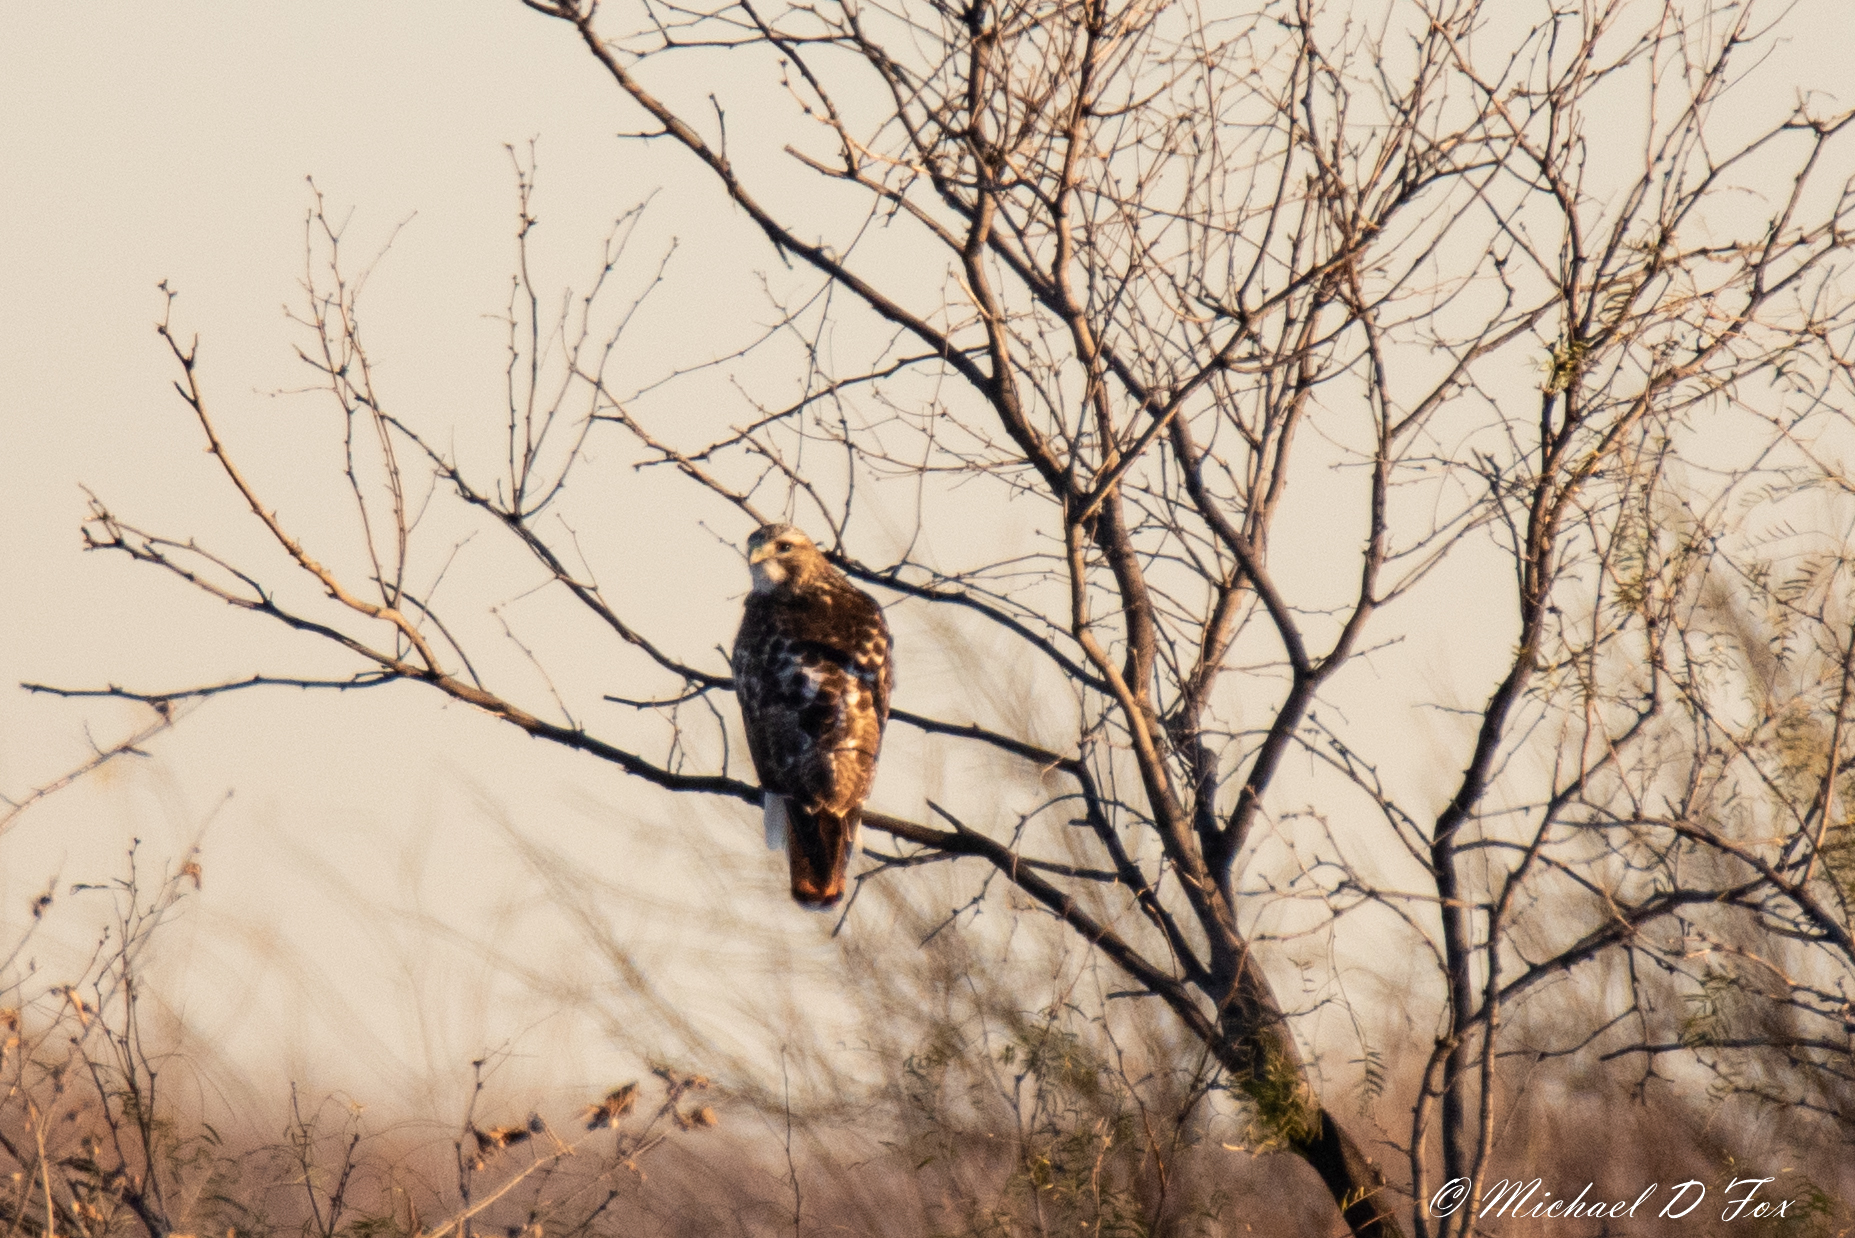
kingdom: Animalia
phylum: Chordata
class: Aves
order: Accipitriformes
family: Accipitridae
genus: Buteo
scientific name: Buteo jamaicensis
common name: Red-tailed hawk
